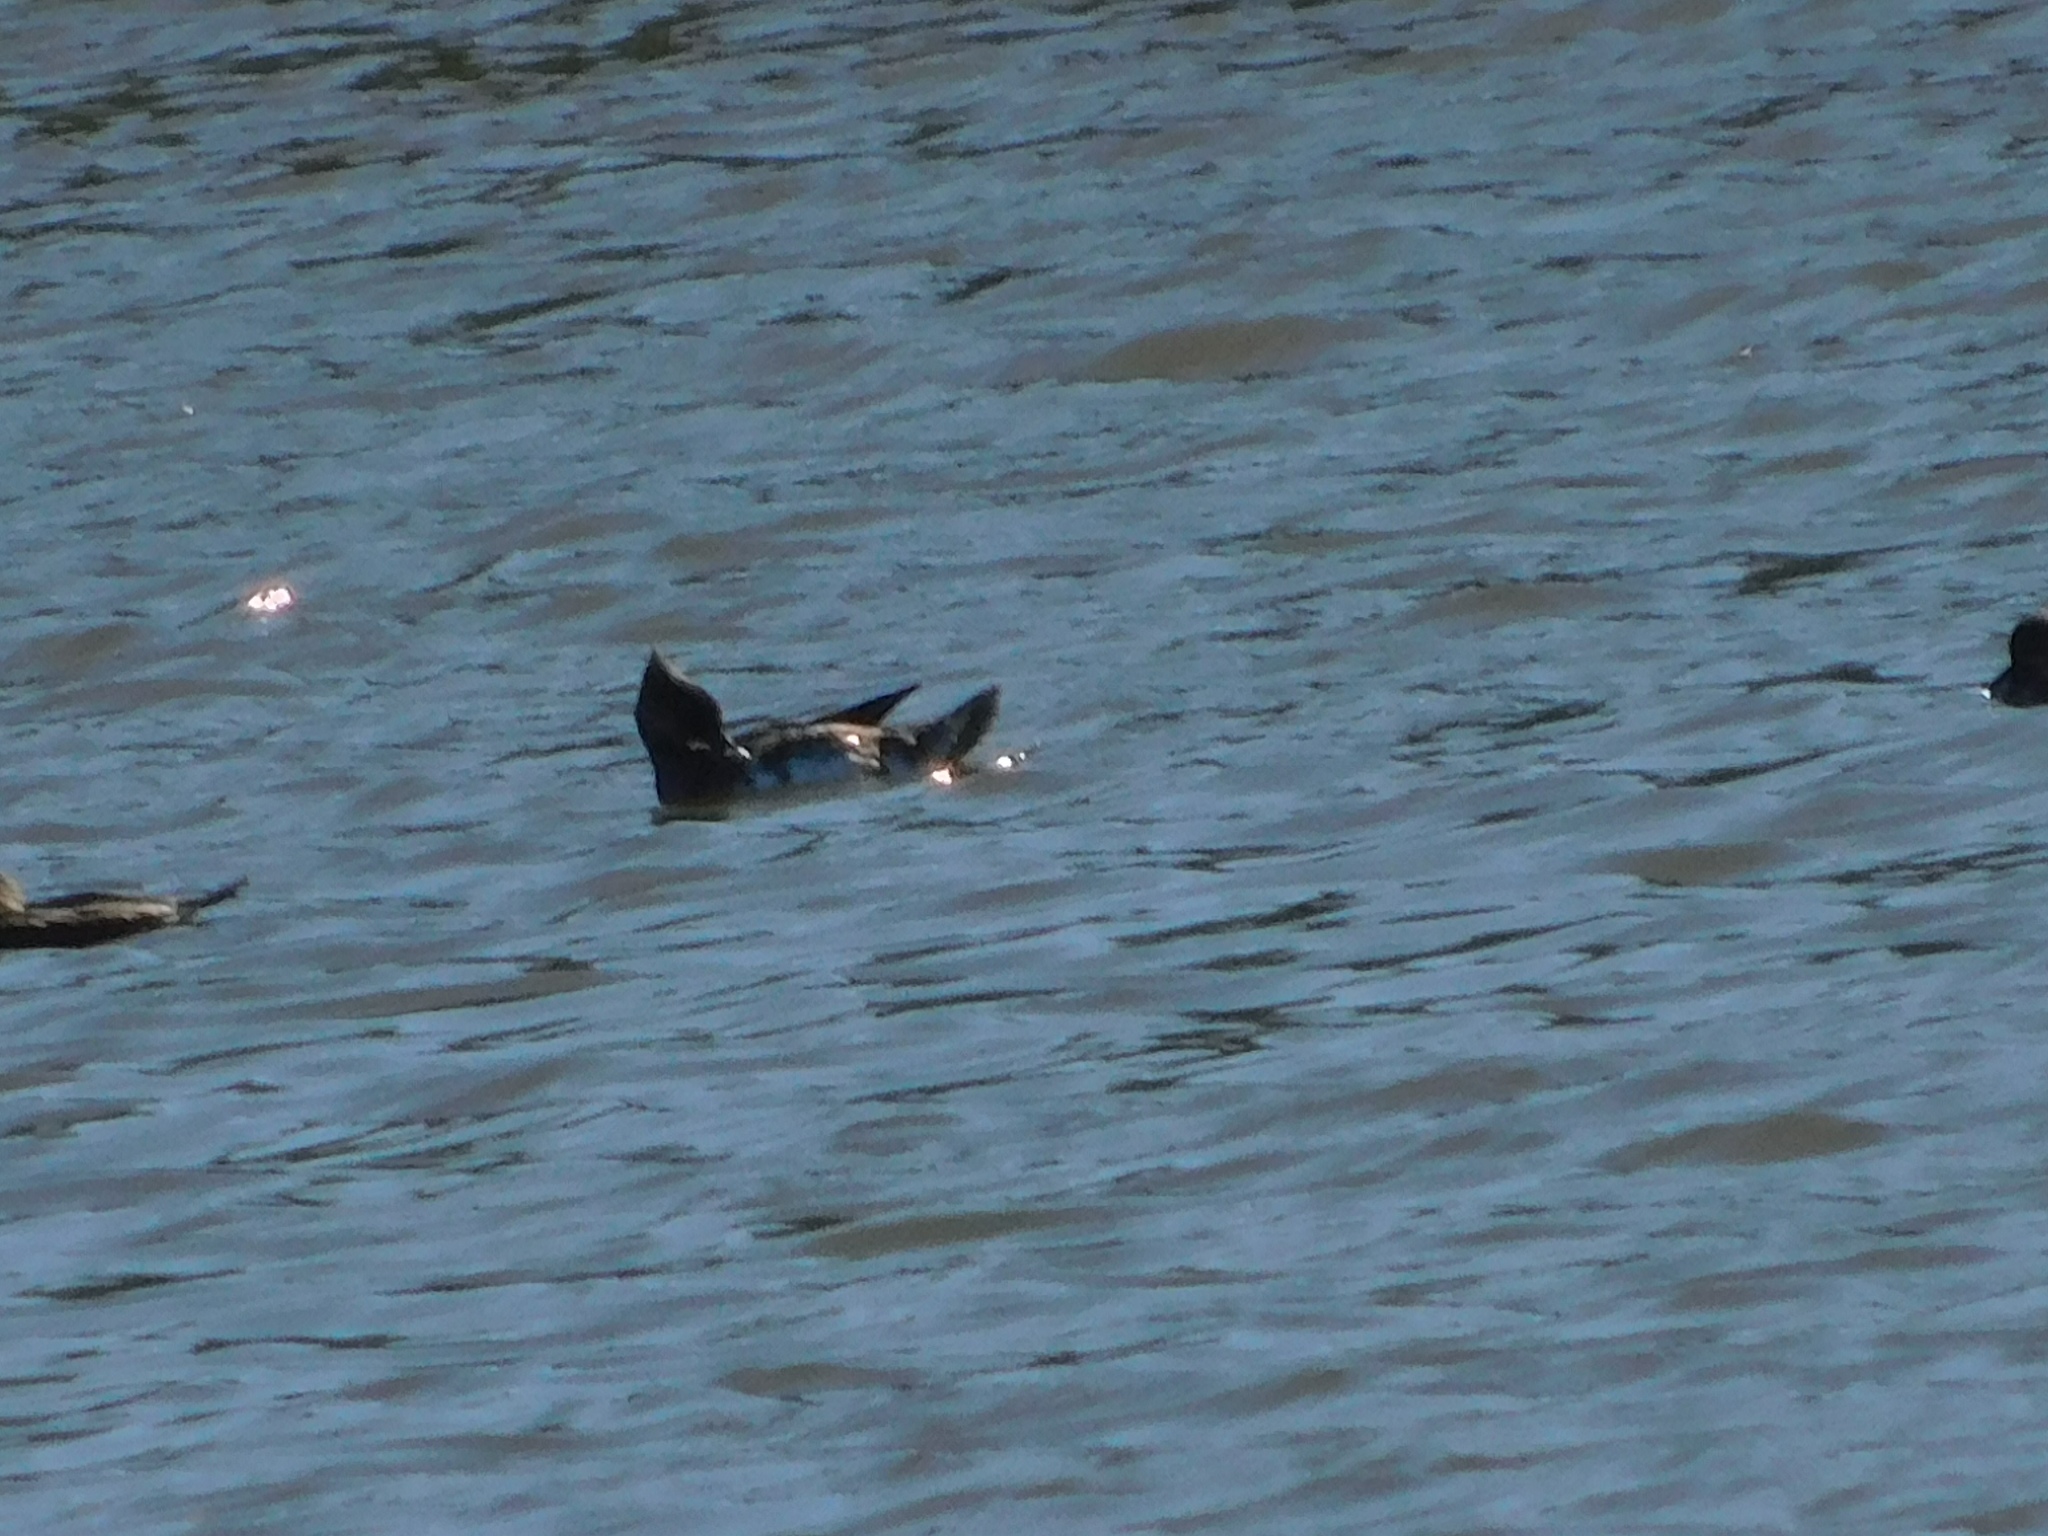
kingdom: Animalia
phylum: Chordata
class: Aves
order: Anseriformes
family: Anatidae
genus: Lophodytes
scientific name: Lophodytes cucullatus
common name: Hooded merganser
